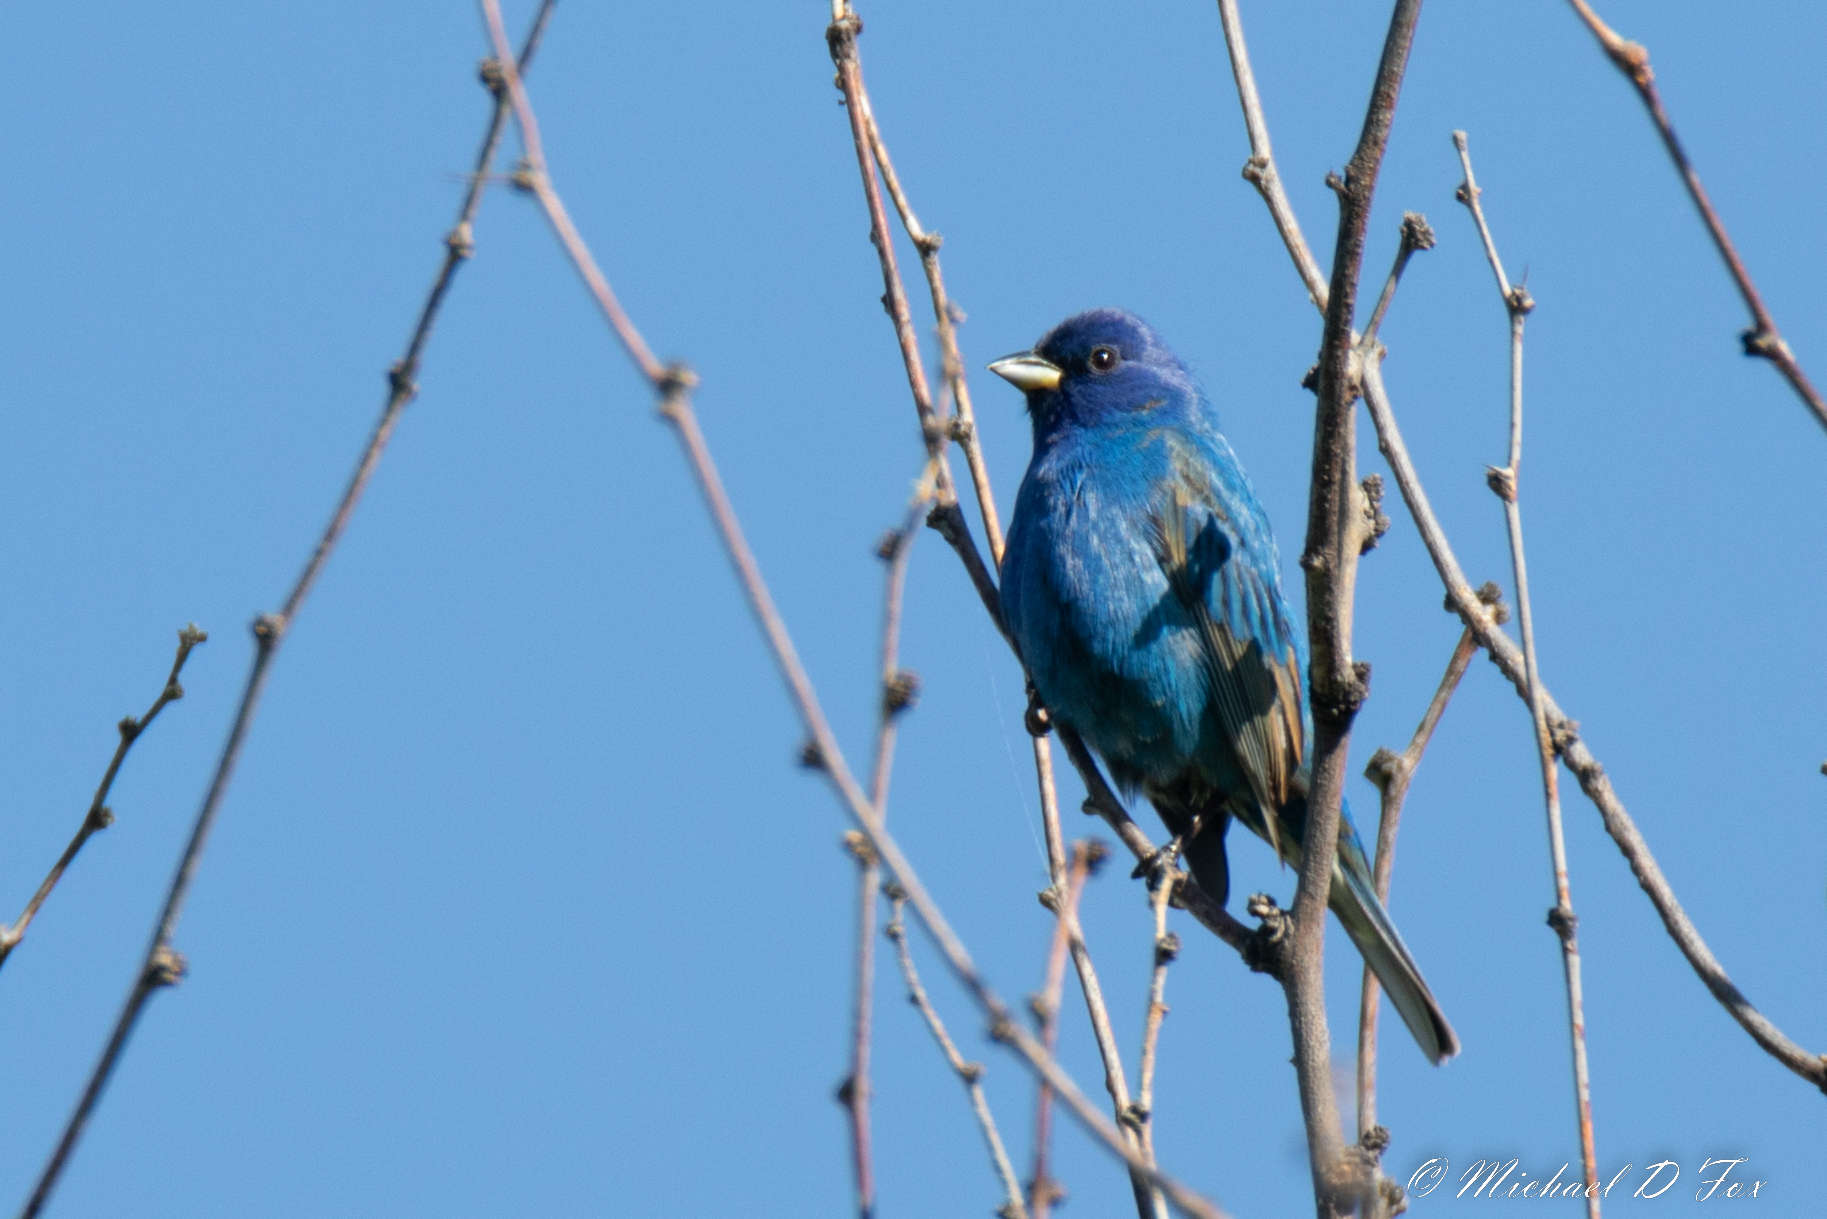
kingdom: Animalia
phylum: Chordata
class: Aves
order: Passeriformes
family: Cardinalidae
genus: Passerina
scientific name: Passerina cyanea
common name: Indigo bunting
